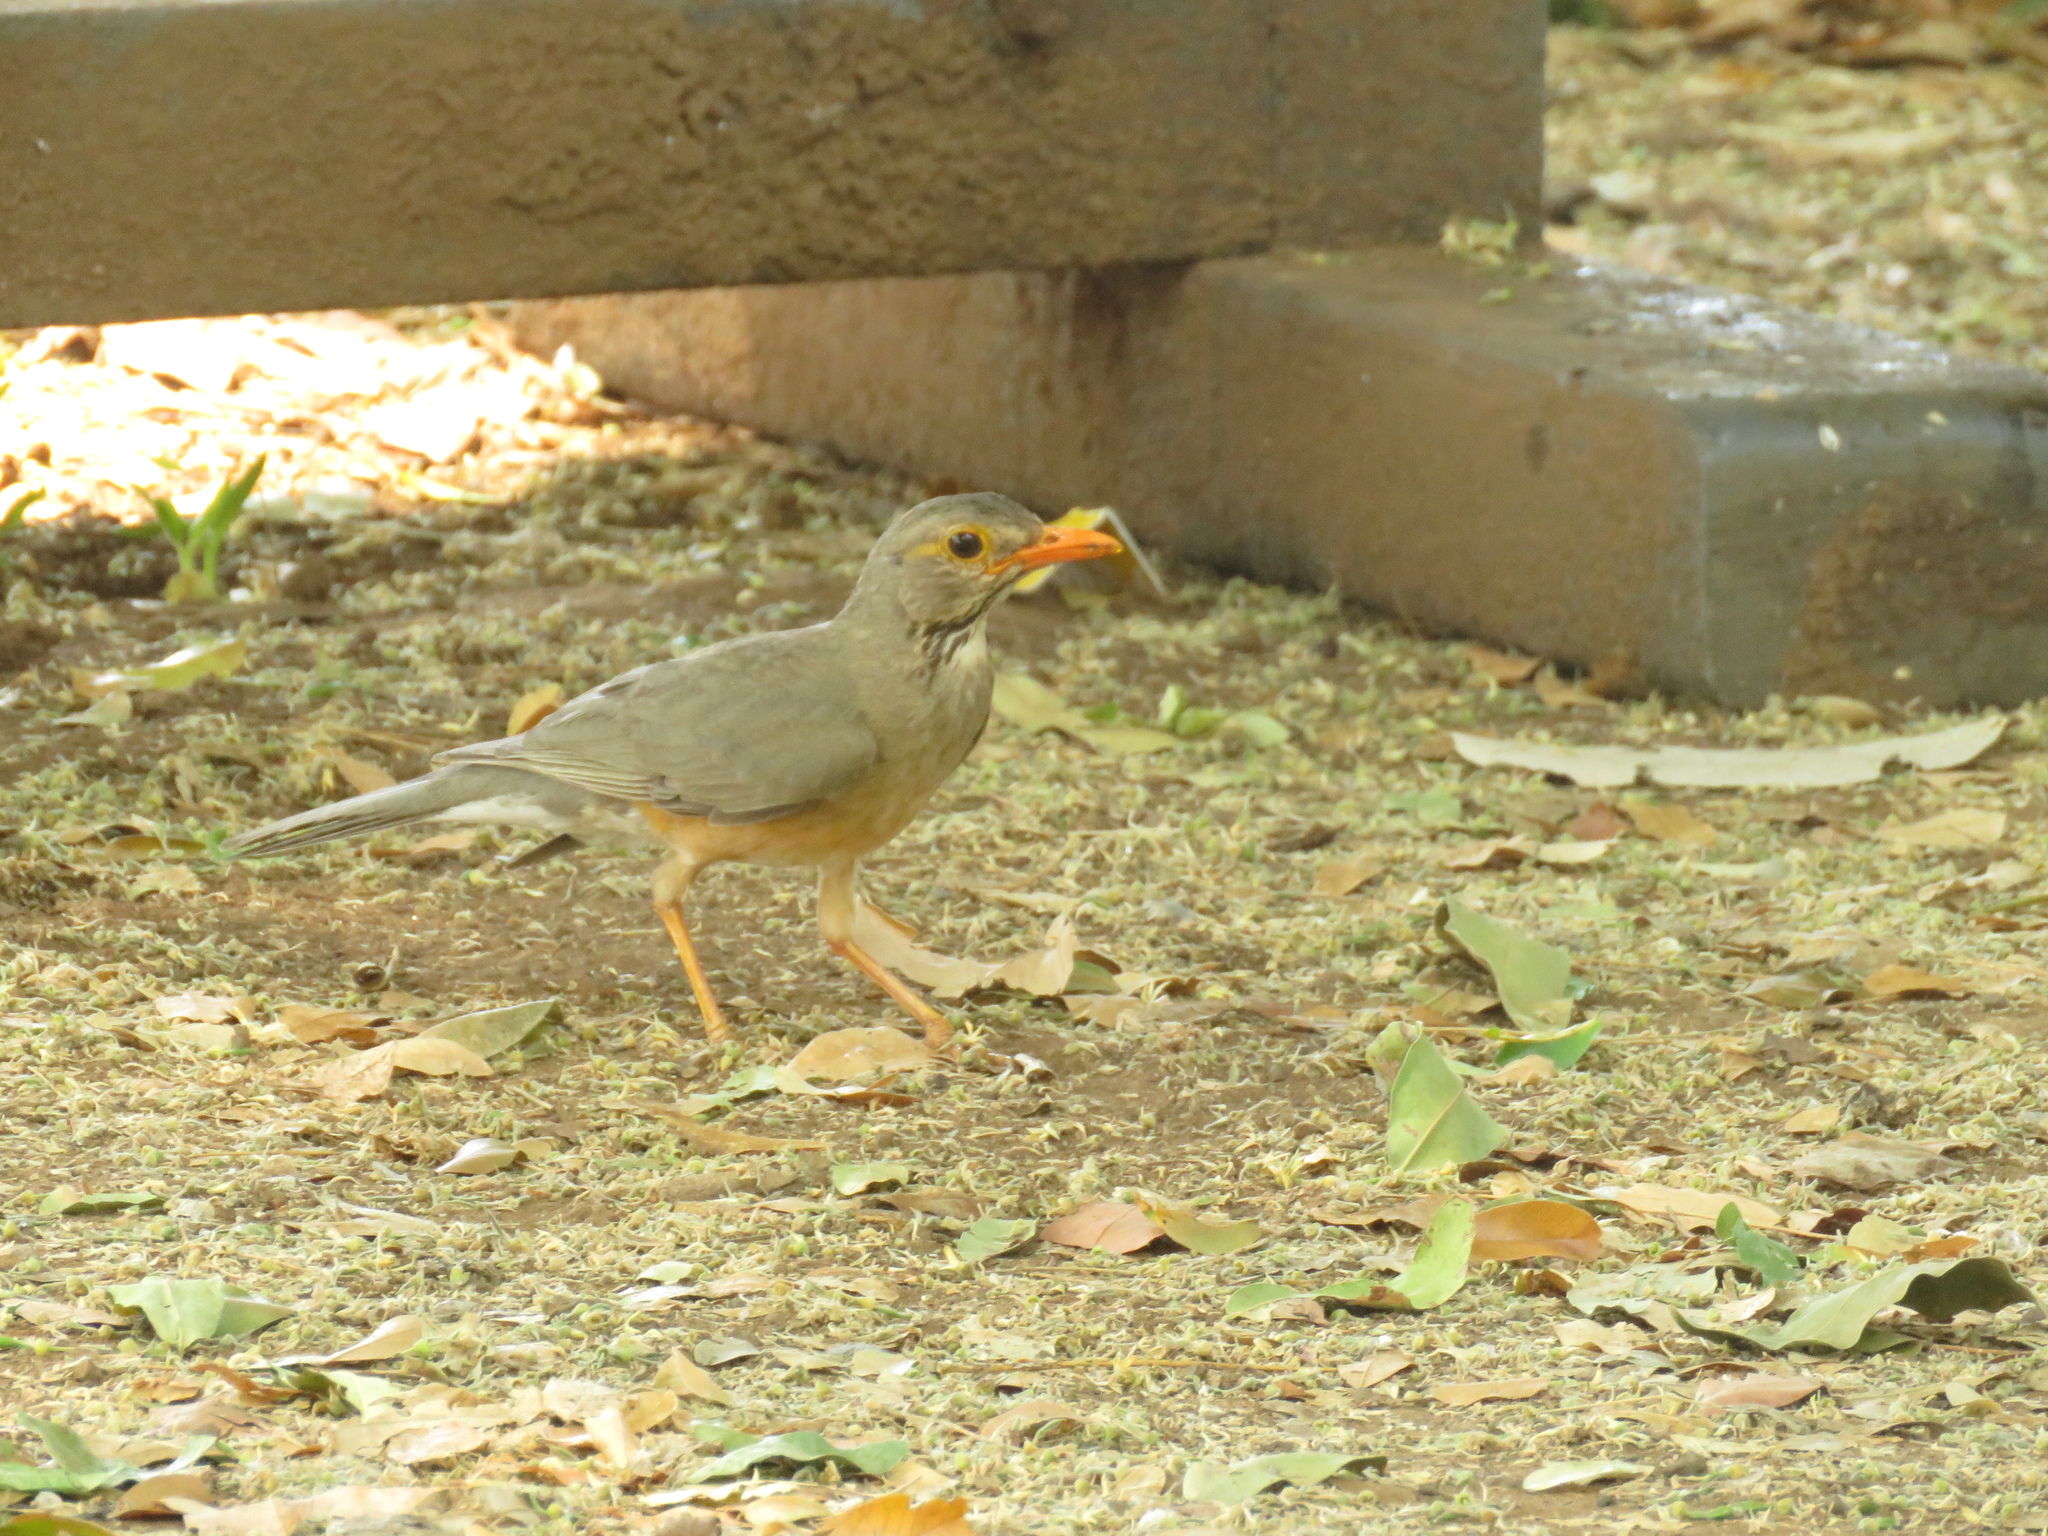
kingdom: Animalia
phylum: Chordata
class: Aves
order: Passeriformes
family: Turdidae
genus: Turdus
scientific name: Turdus libonyana
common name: Kurrichane thrush
